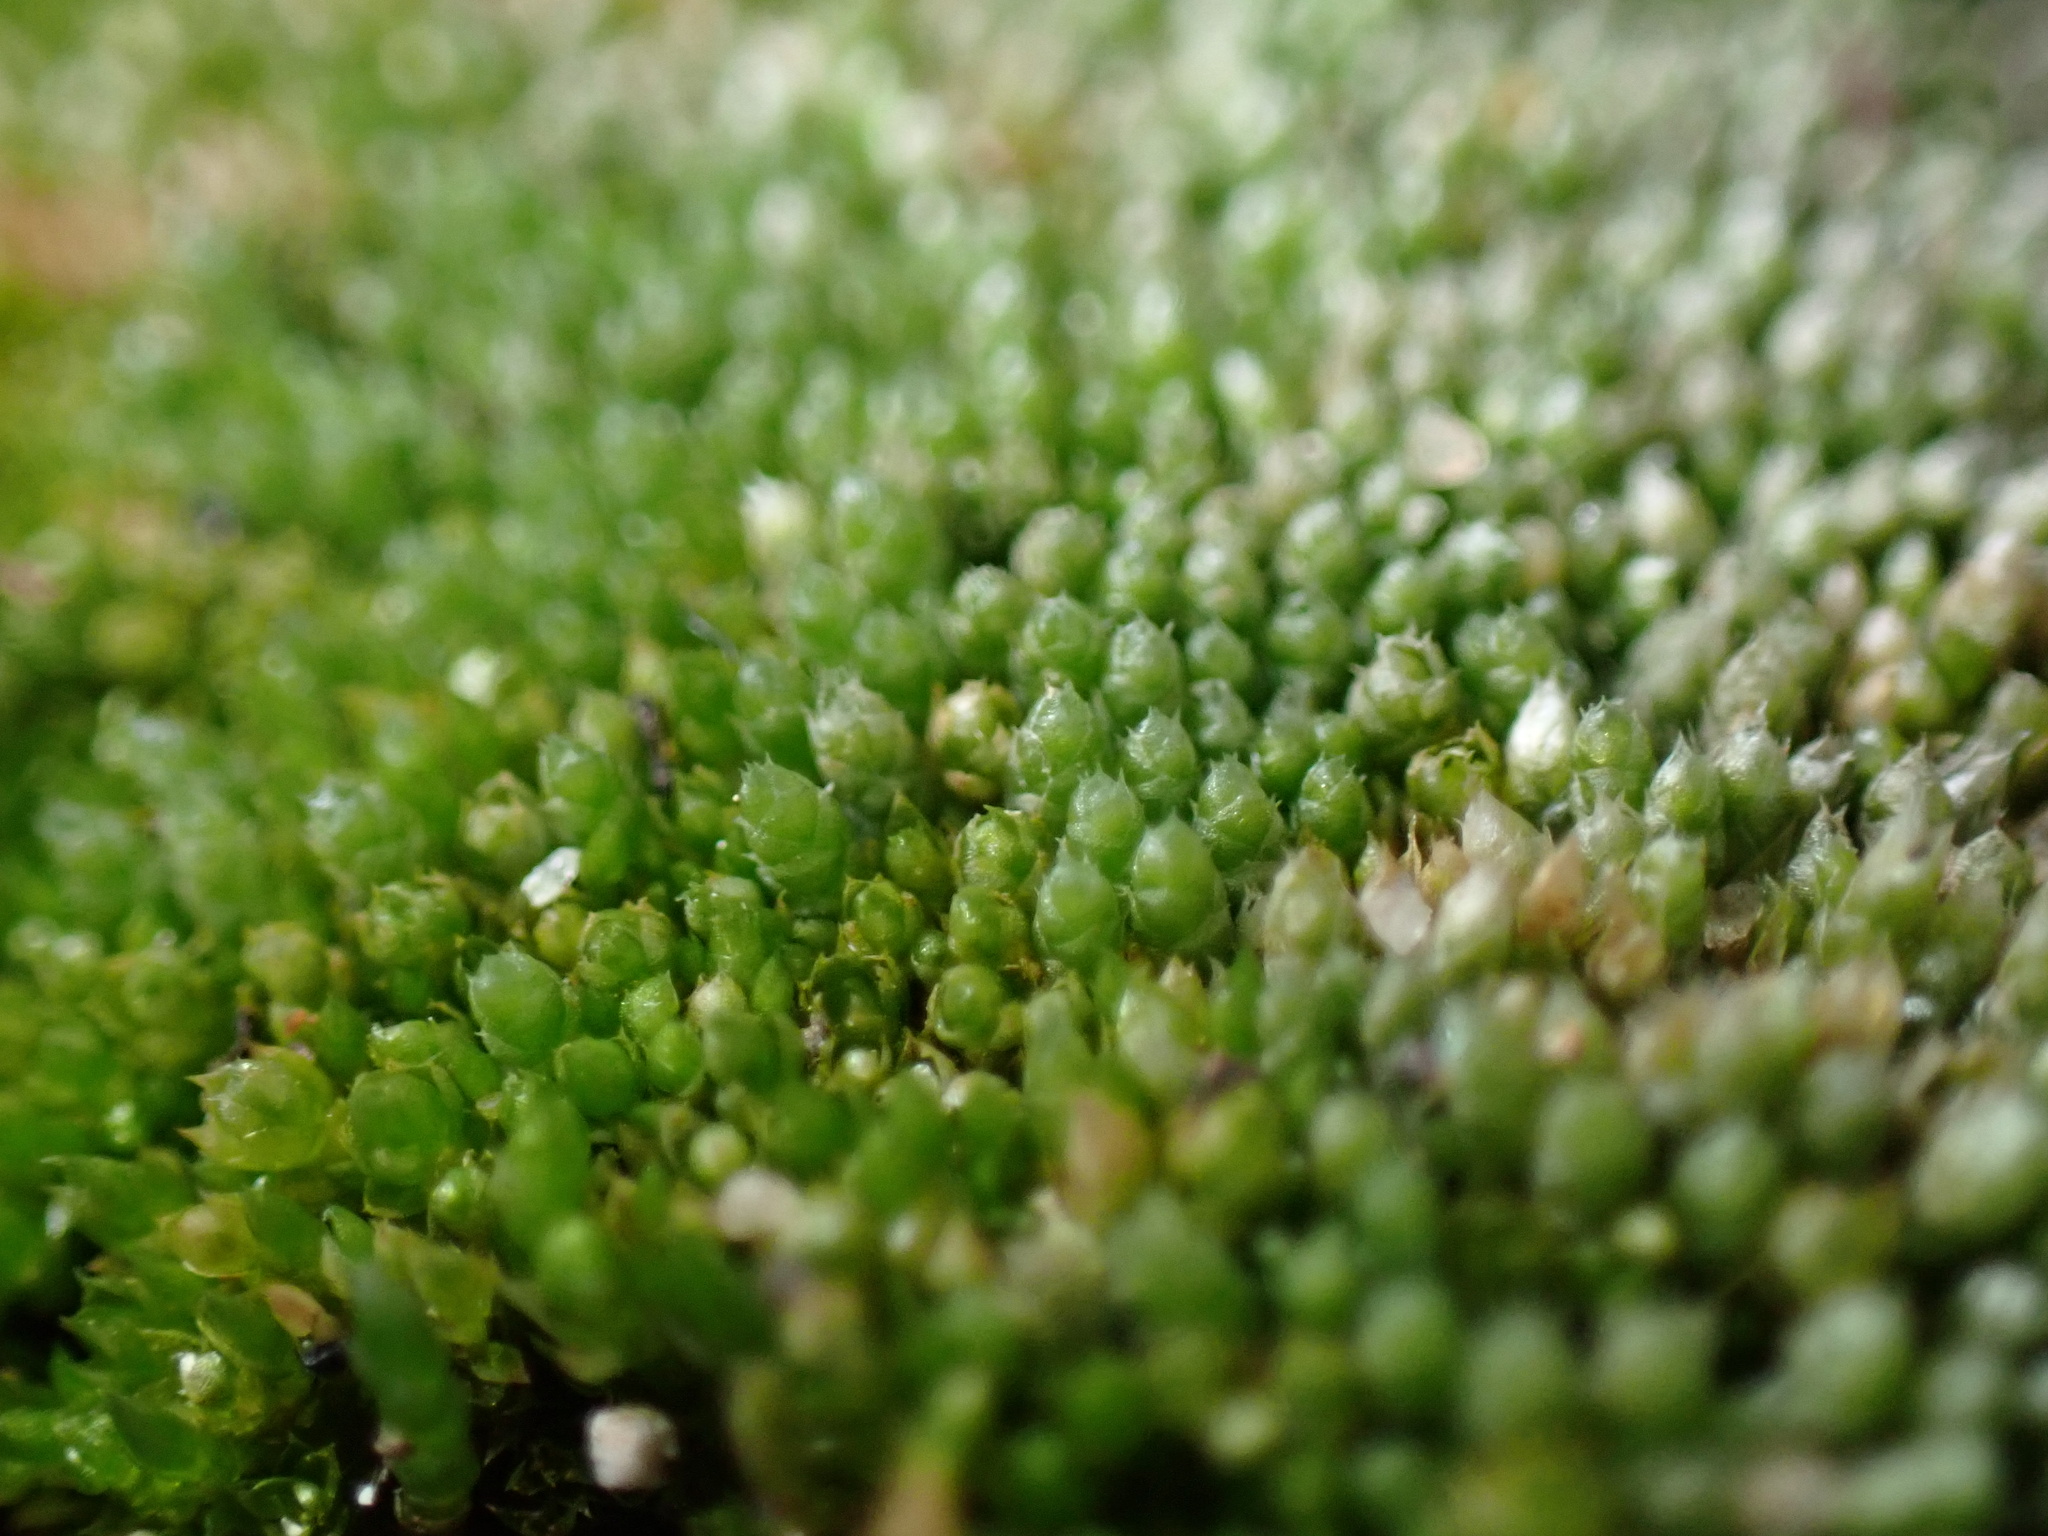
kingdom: Plantae
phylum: Bryophyta
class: Bryopsida
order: Bryales
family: Bryaceae
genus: Bryum
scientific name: Bryum argenteum
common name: Silver-moss
